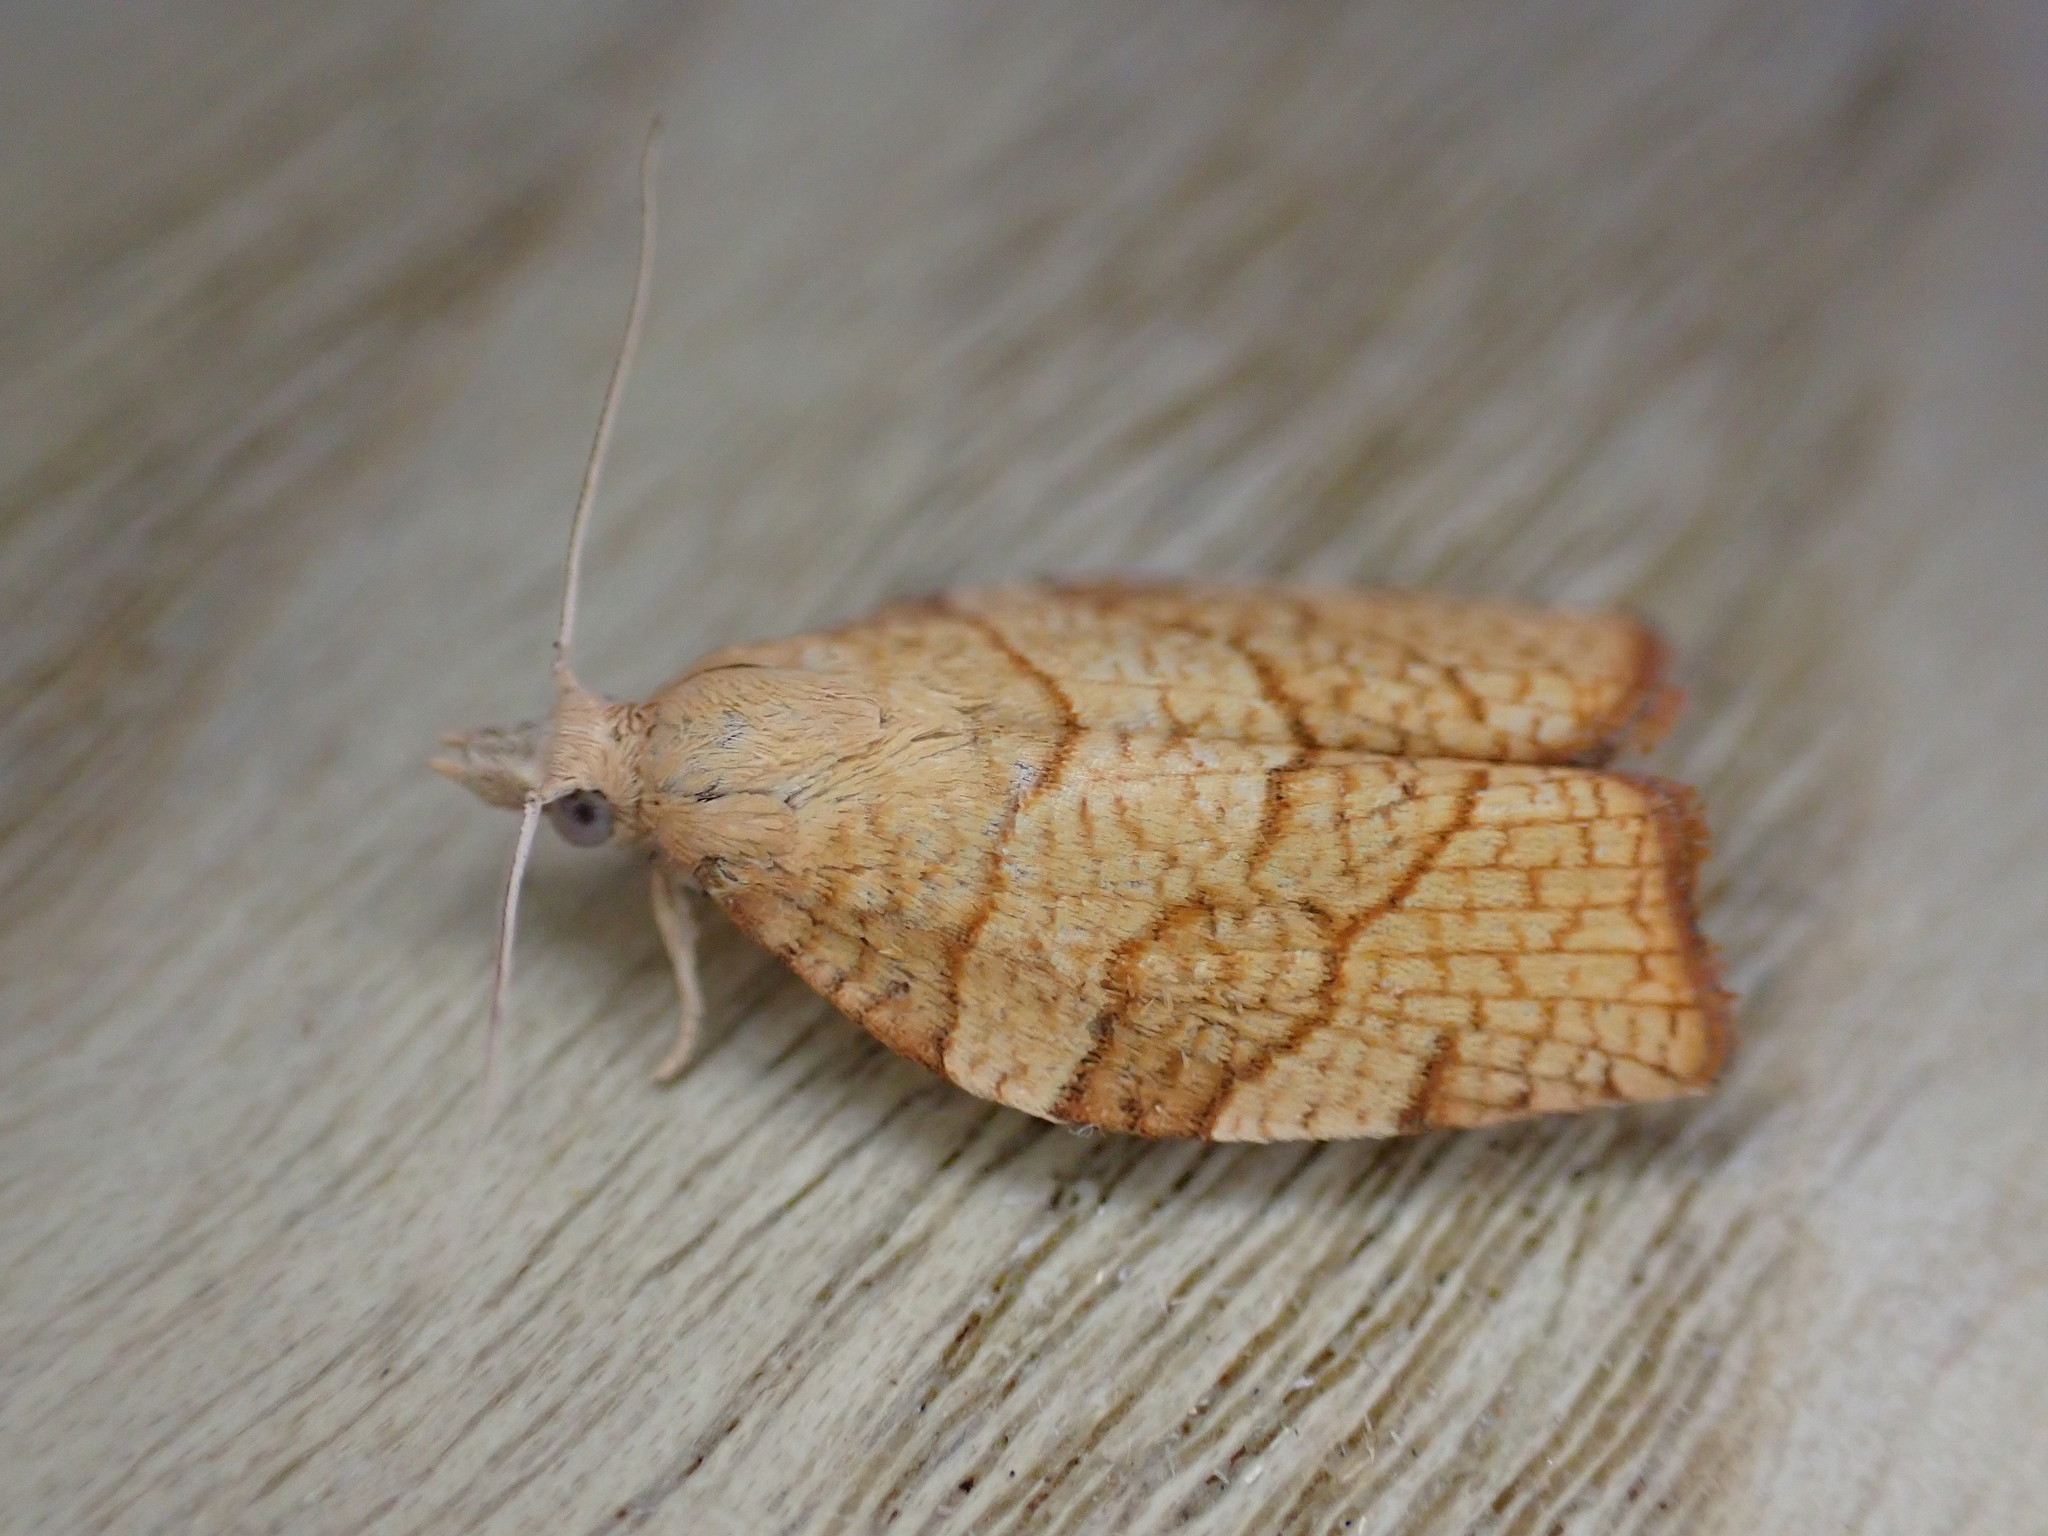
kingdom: Animalia
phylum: Arthropoda
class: Insecta
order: Lepidoptera
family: Tortricidae
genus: Pandemis
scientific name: Pandemis corylana
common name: Chequered fruit-tree tortrix
